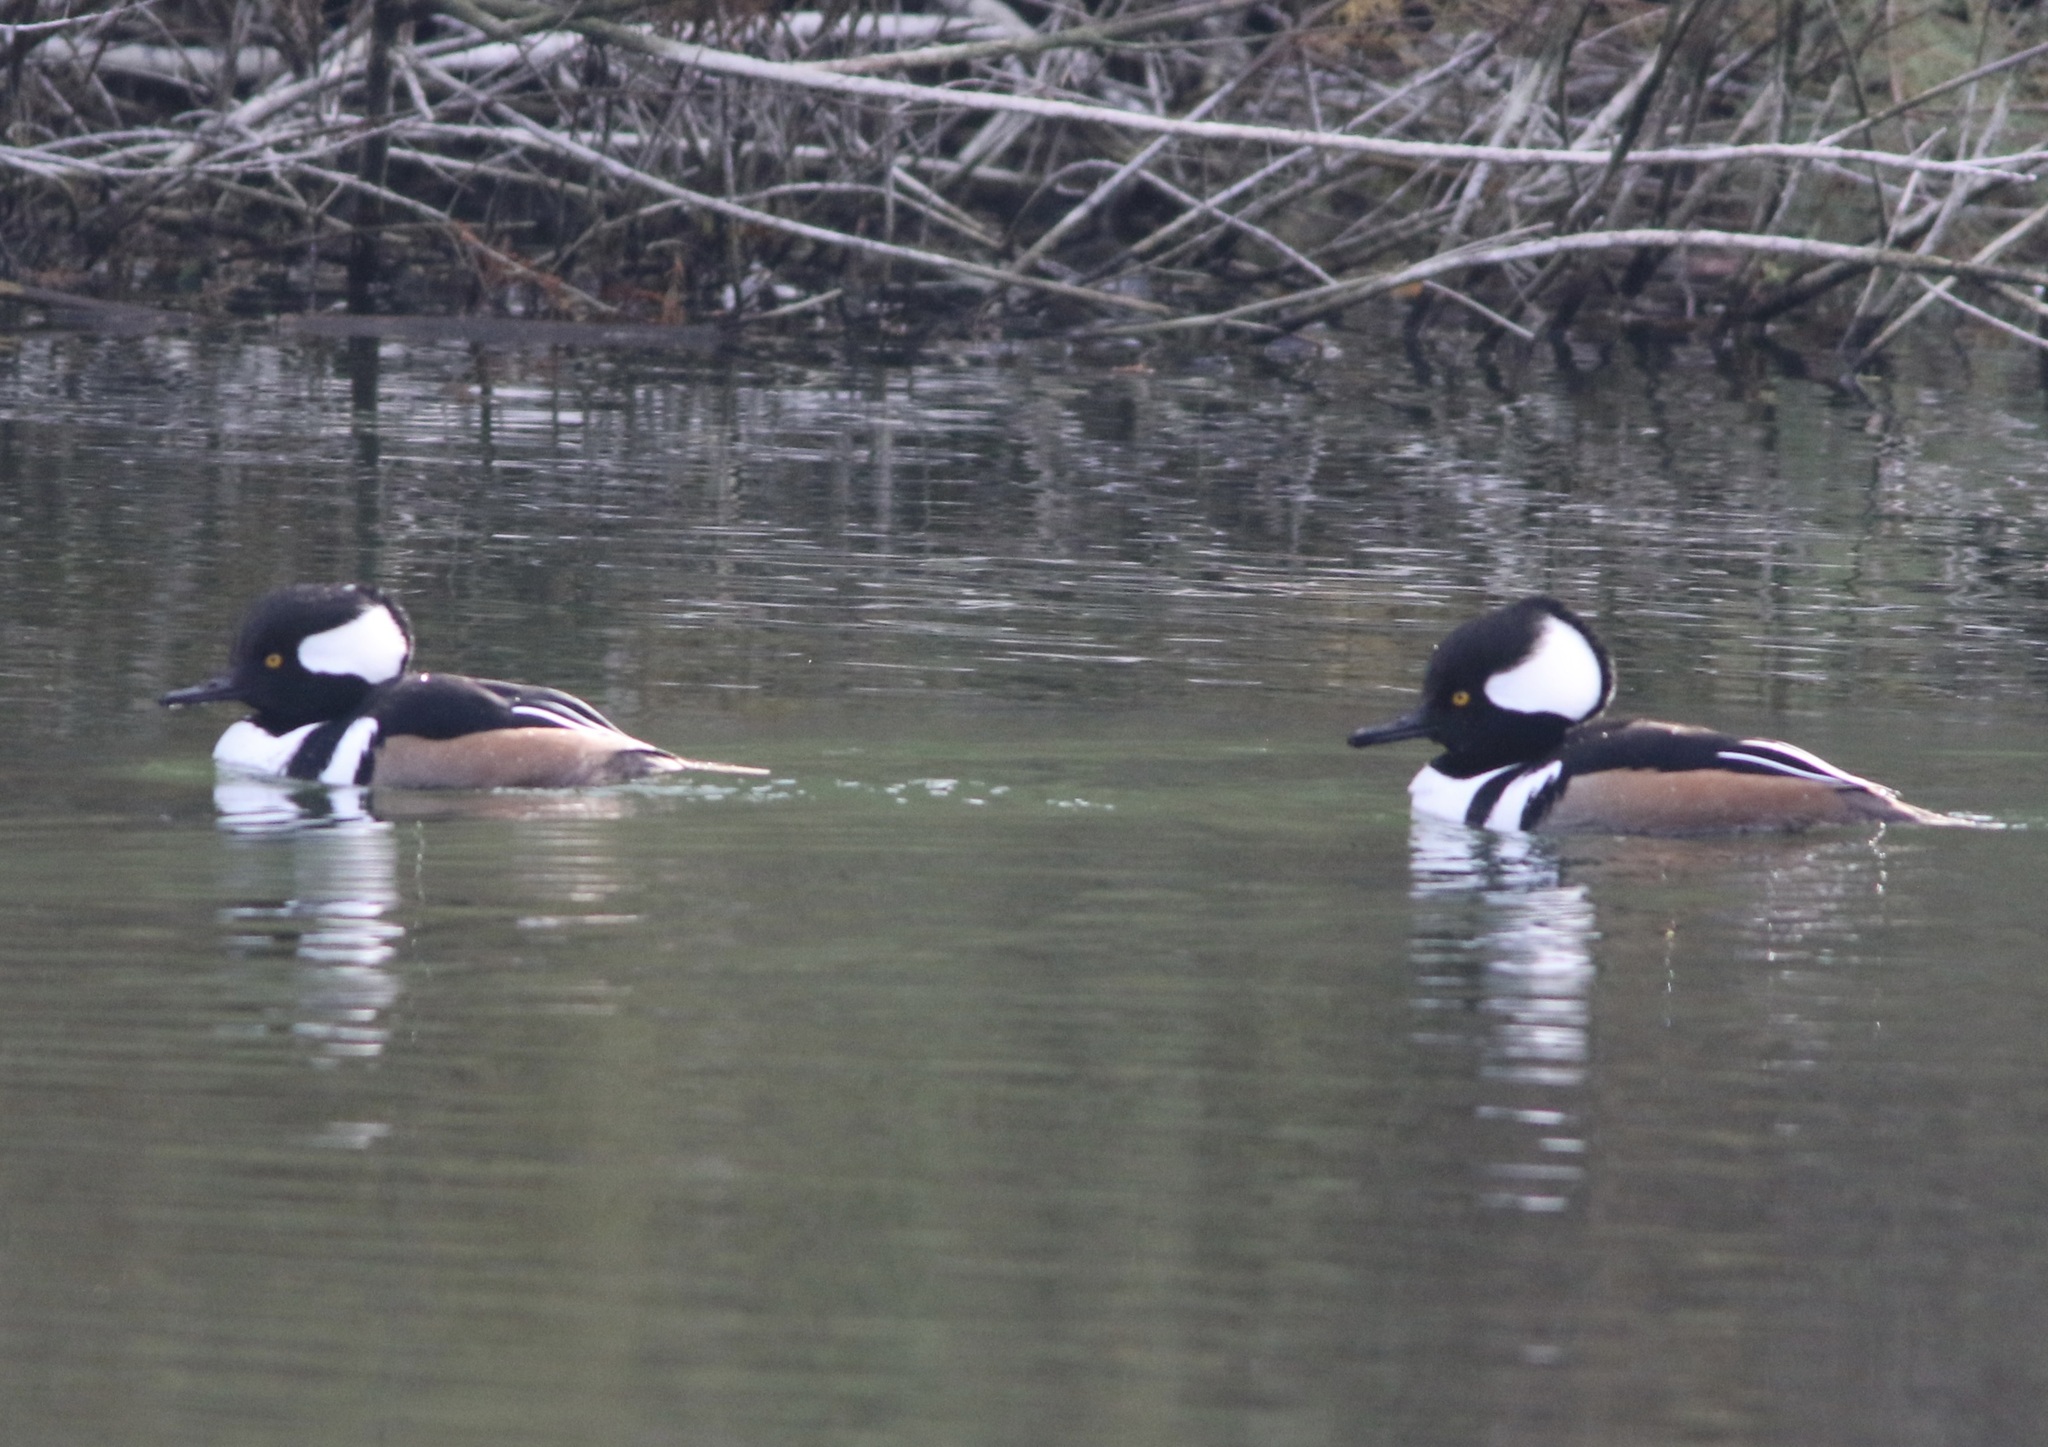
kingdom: Animalia
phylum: Chordata
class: Aves
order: Anseriformes
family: Anatidae
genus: Lophodytes
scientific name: Lophodytes cucullatus
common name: Hooded merganser
